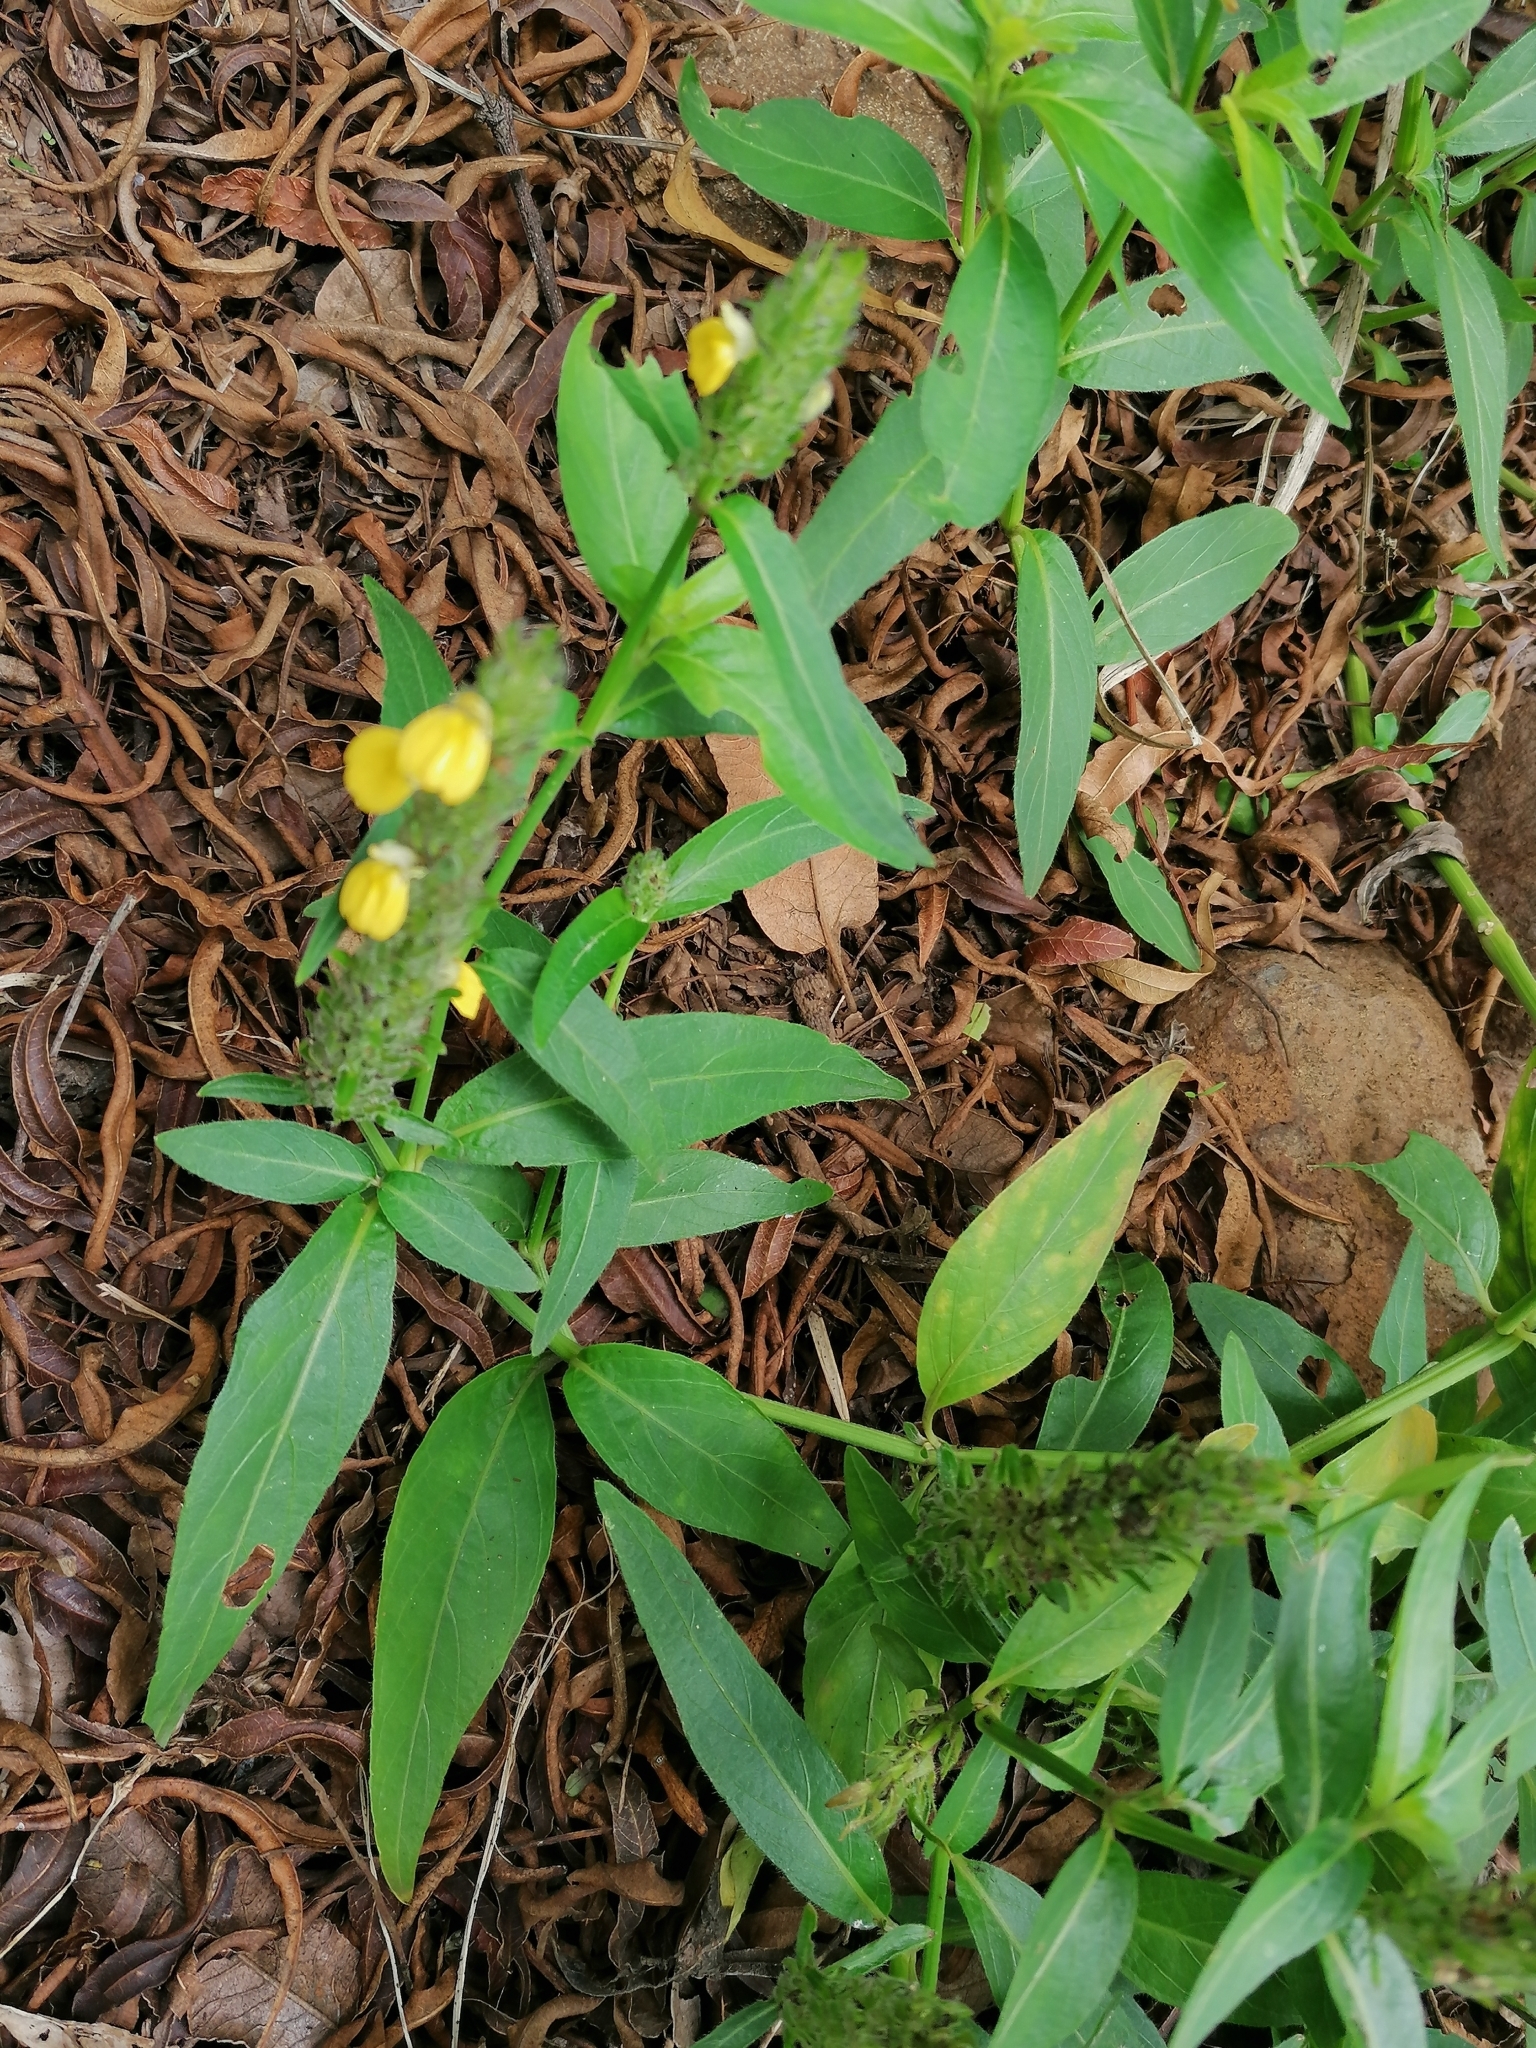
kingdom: Plantae
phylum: Tracheophyta
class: Magnoliopsida
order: Lamiales
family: Acanthaceae
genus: Justicia
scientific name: Justicia flava
